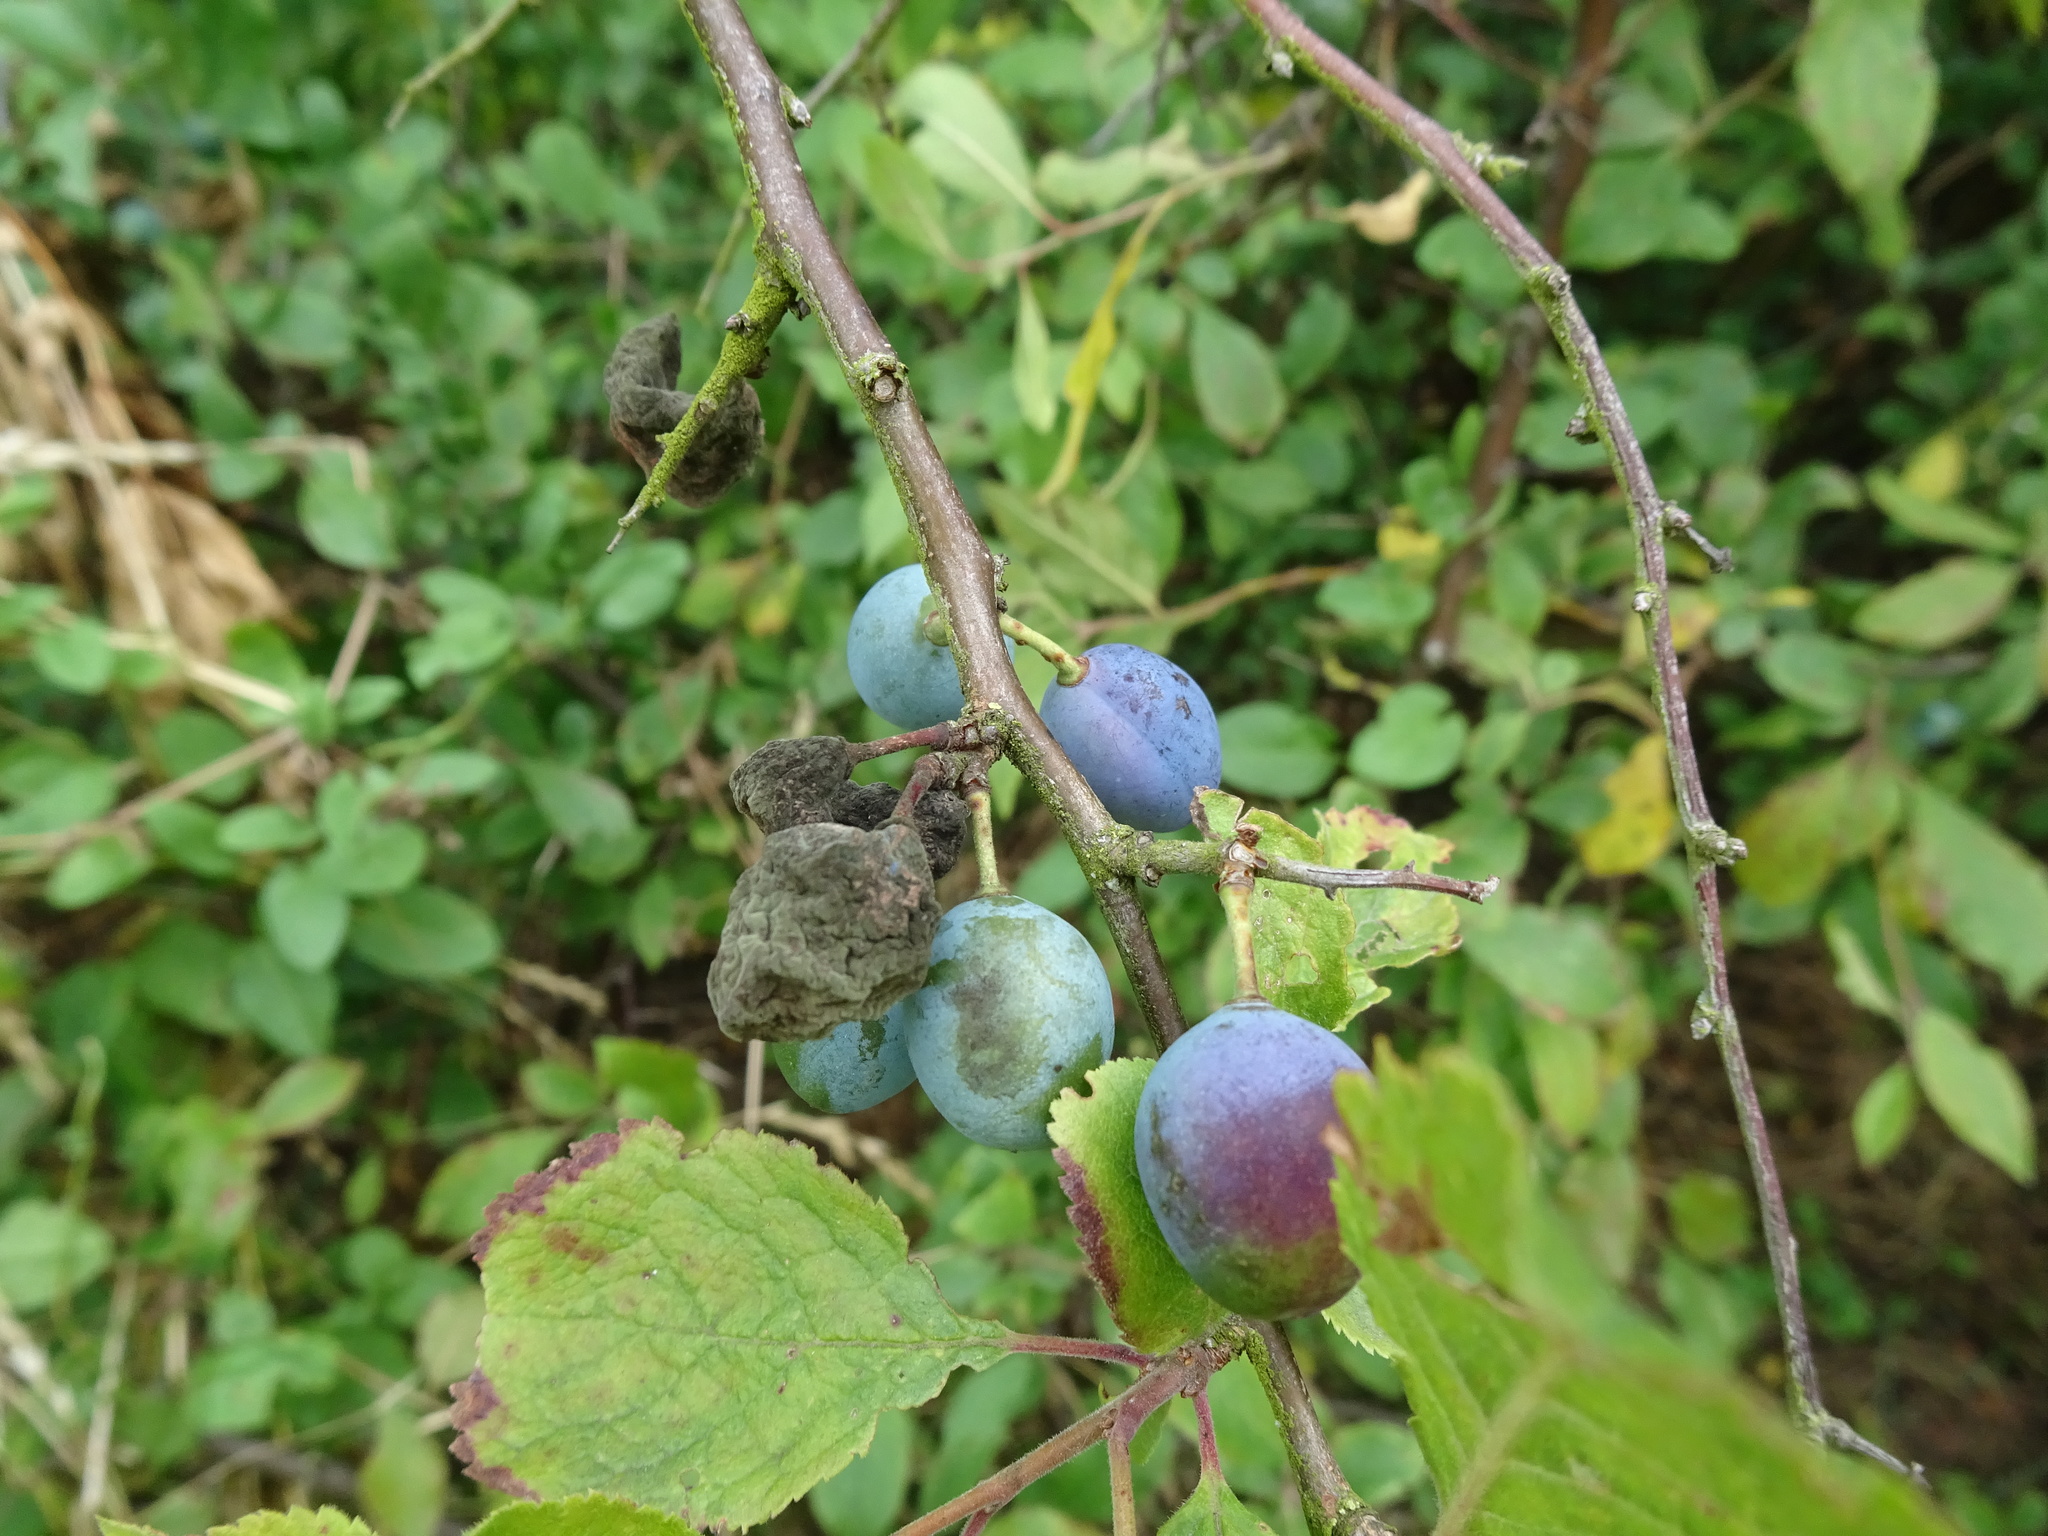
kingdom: Plantae
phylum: Tracheophyta
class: Magnoliopsida
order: Rosales
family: Rosaceae
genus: Prunus
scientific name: Prunus spinosa
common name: Blackthorn
